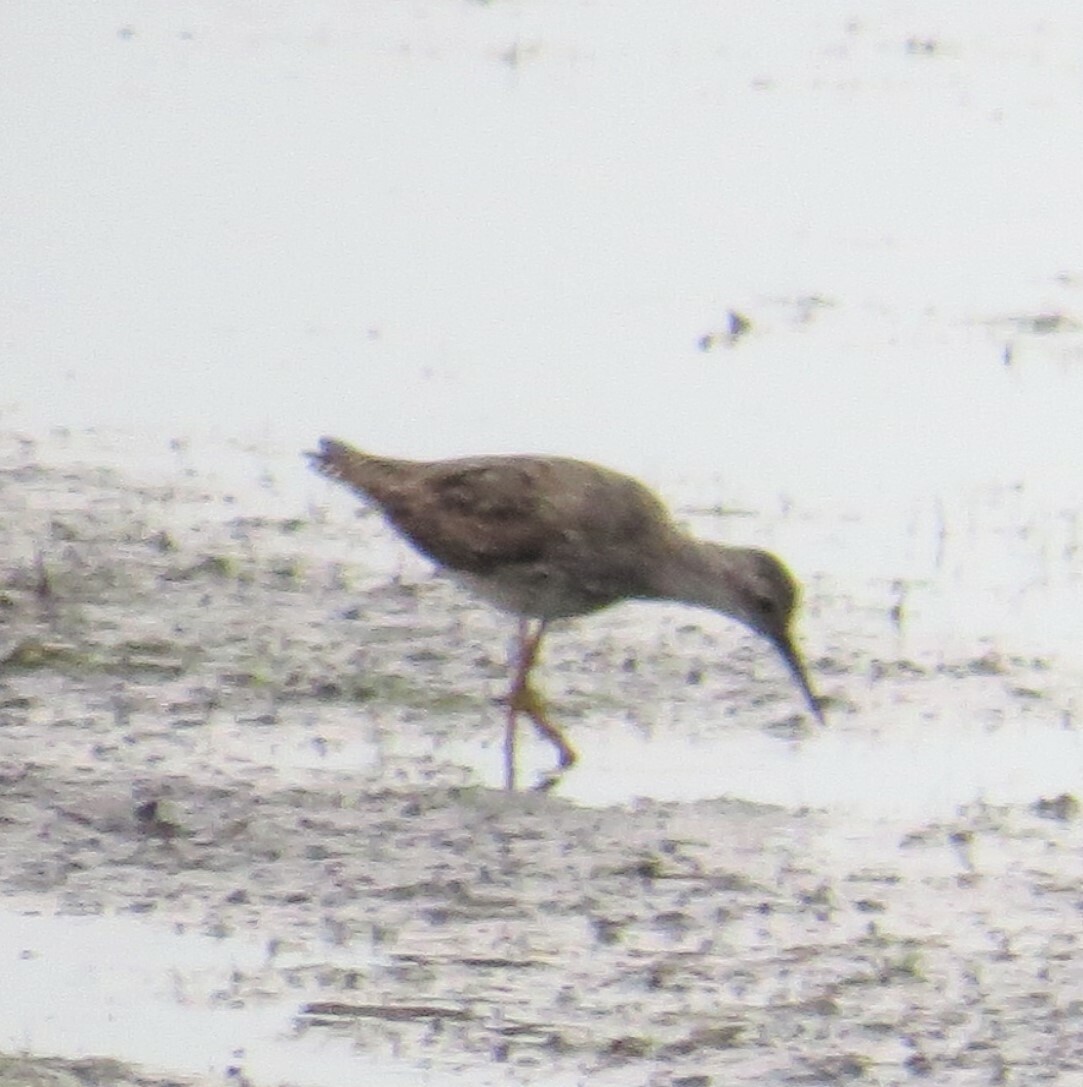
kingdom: Animalia
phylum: Chordata
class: Aves
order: Charadriiformes
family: Scolopacidae
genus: Tringa
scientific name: Tringa flavipes
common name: Lesser yellowlegs
